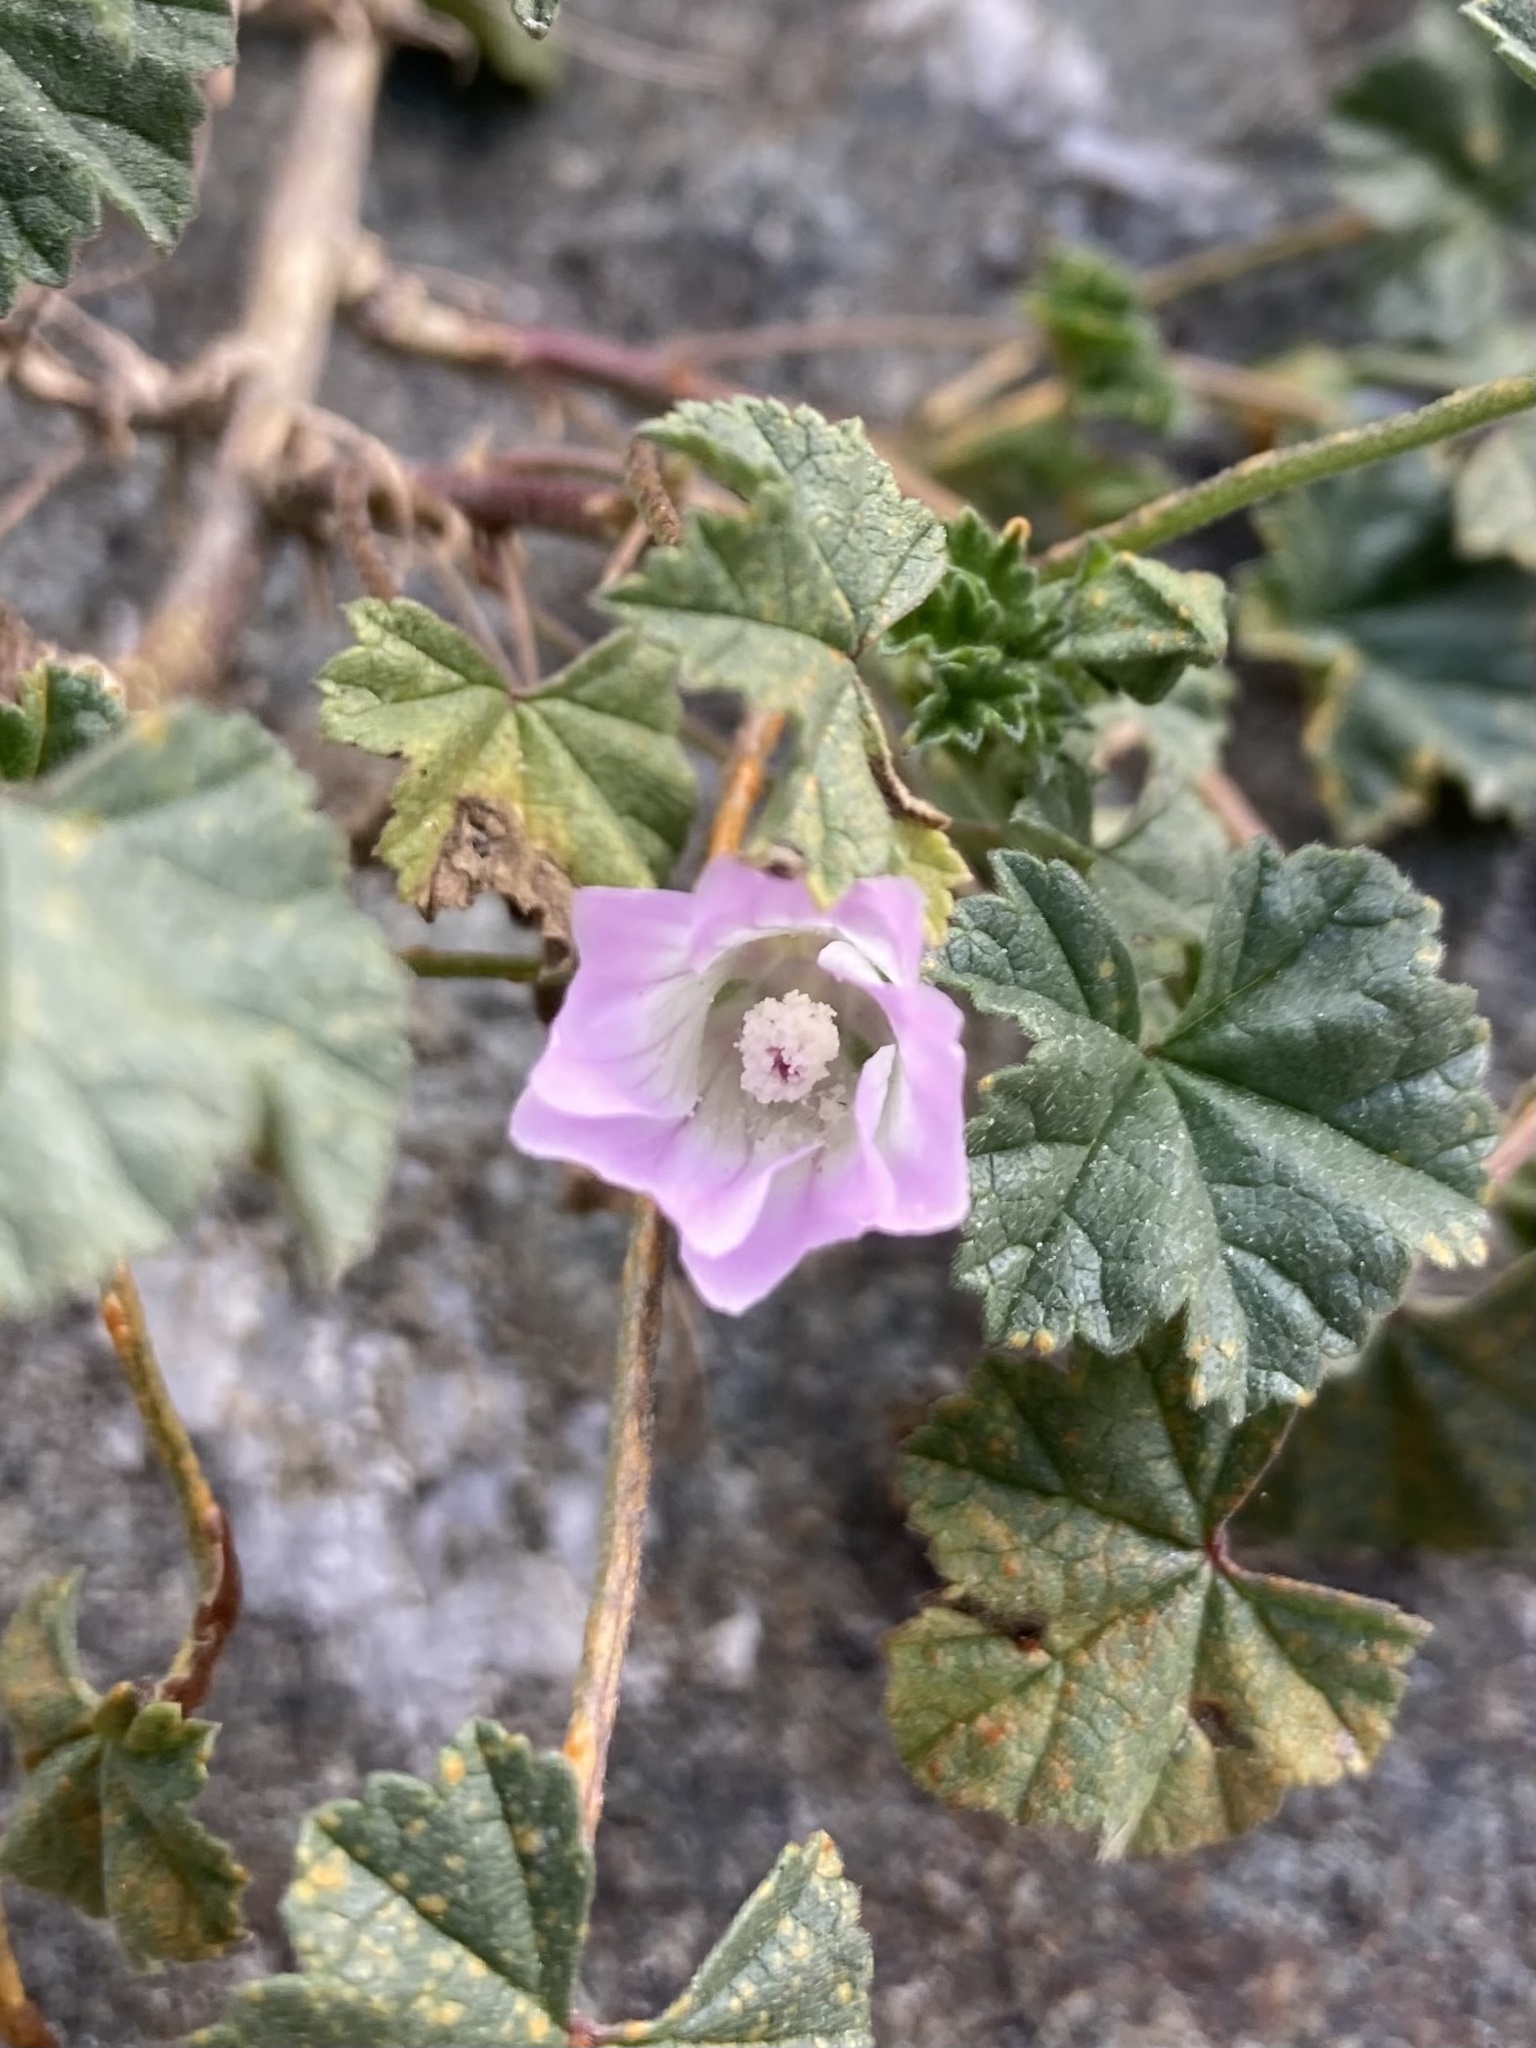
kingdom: Plantae
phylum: Tracheophyta
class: Magnoliopsida
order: Malvales
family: Malvaceae
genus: Malva
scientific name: Malva neglecta
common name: Common mallow
